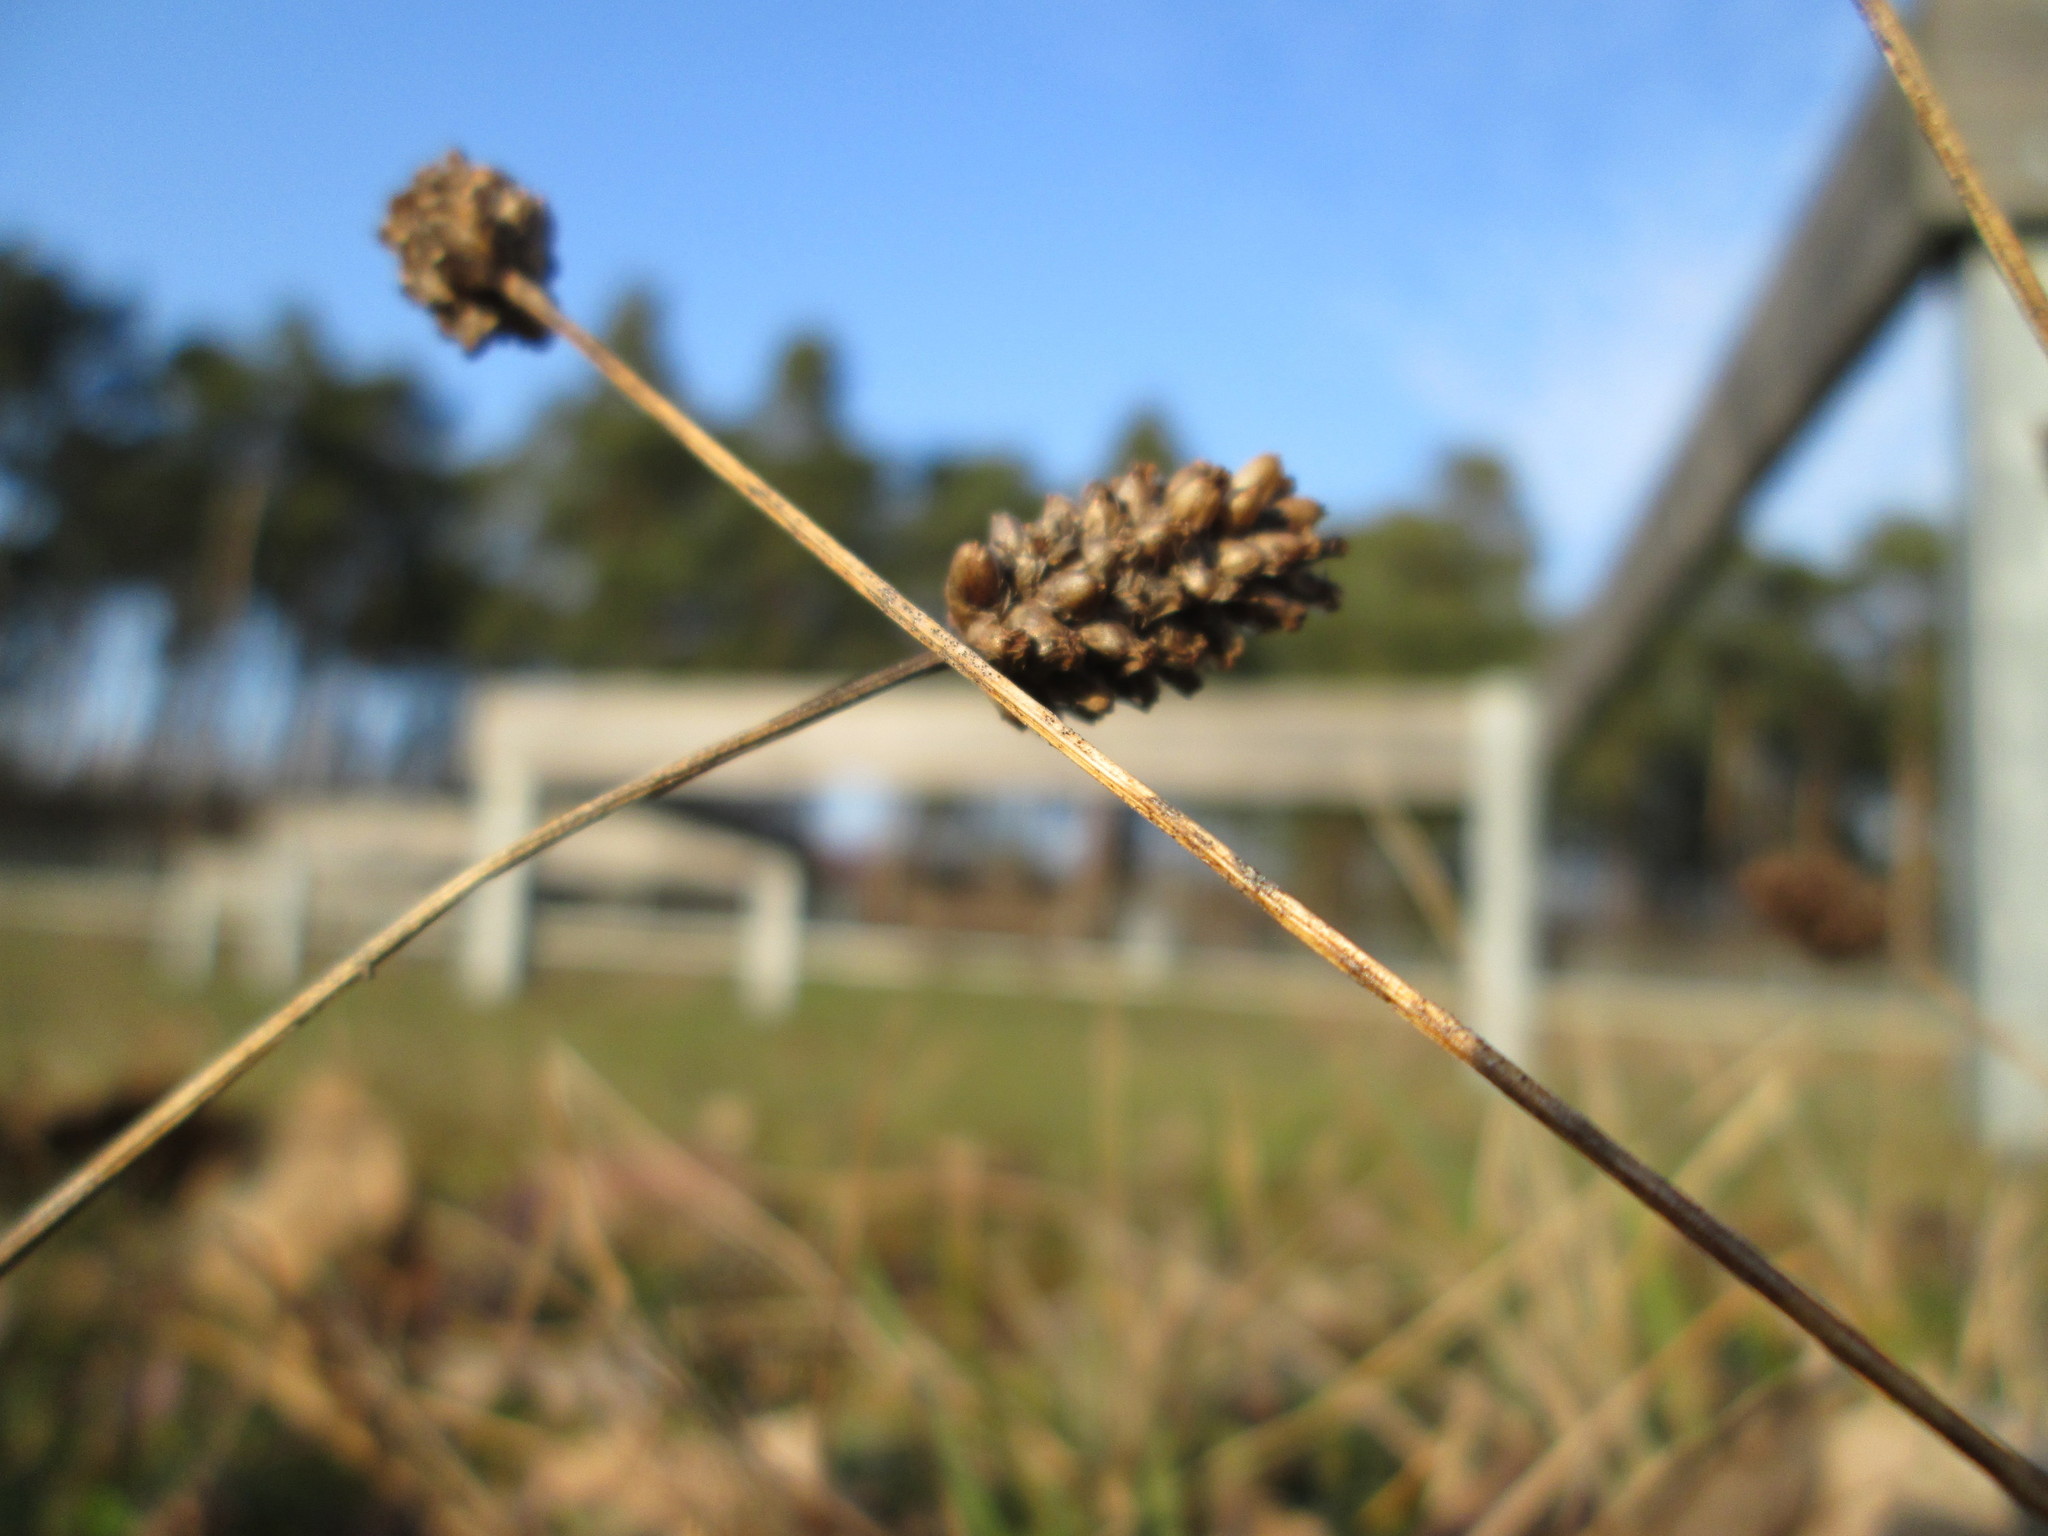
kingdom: Plantae
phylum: Tracheophyta
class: Magnoliopsida
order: Lamiales
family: Plantaginaceae
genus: Plantago
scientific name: Plantago lanceolata
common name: Ribwort plantain
